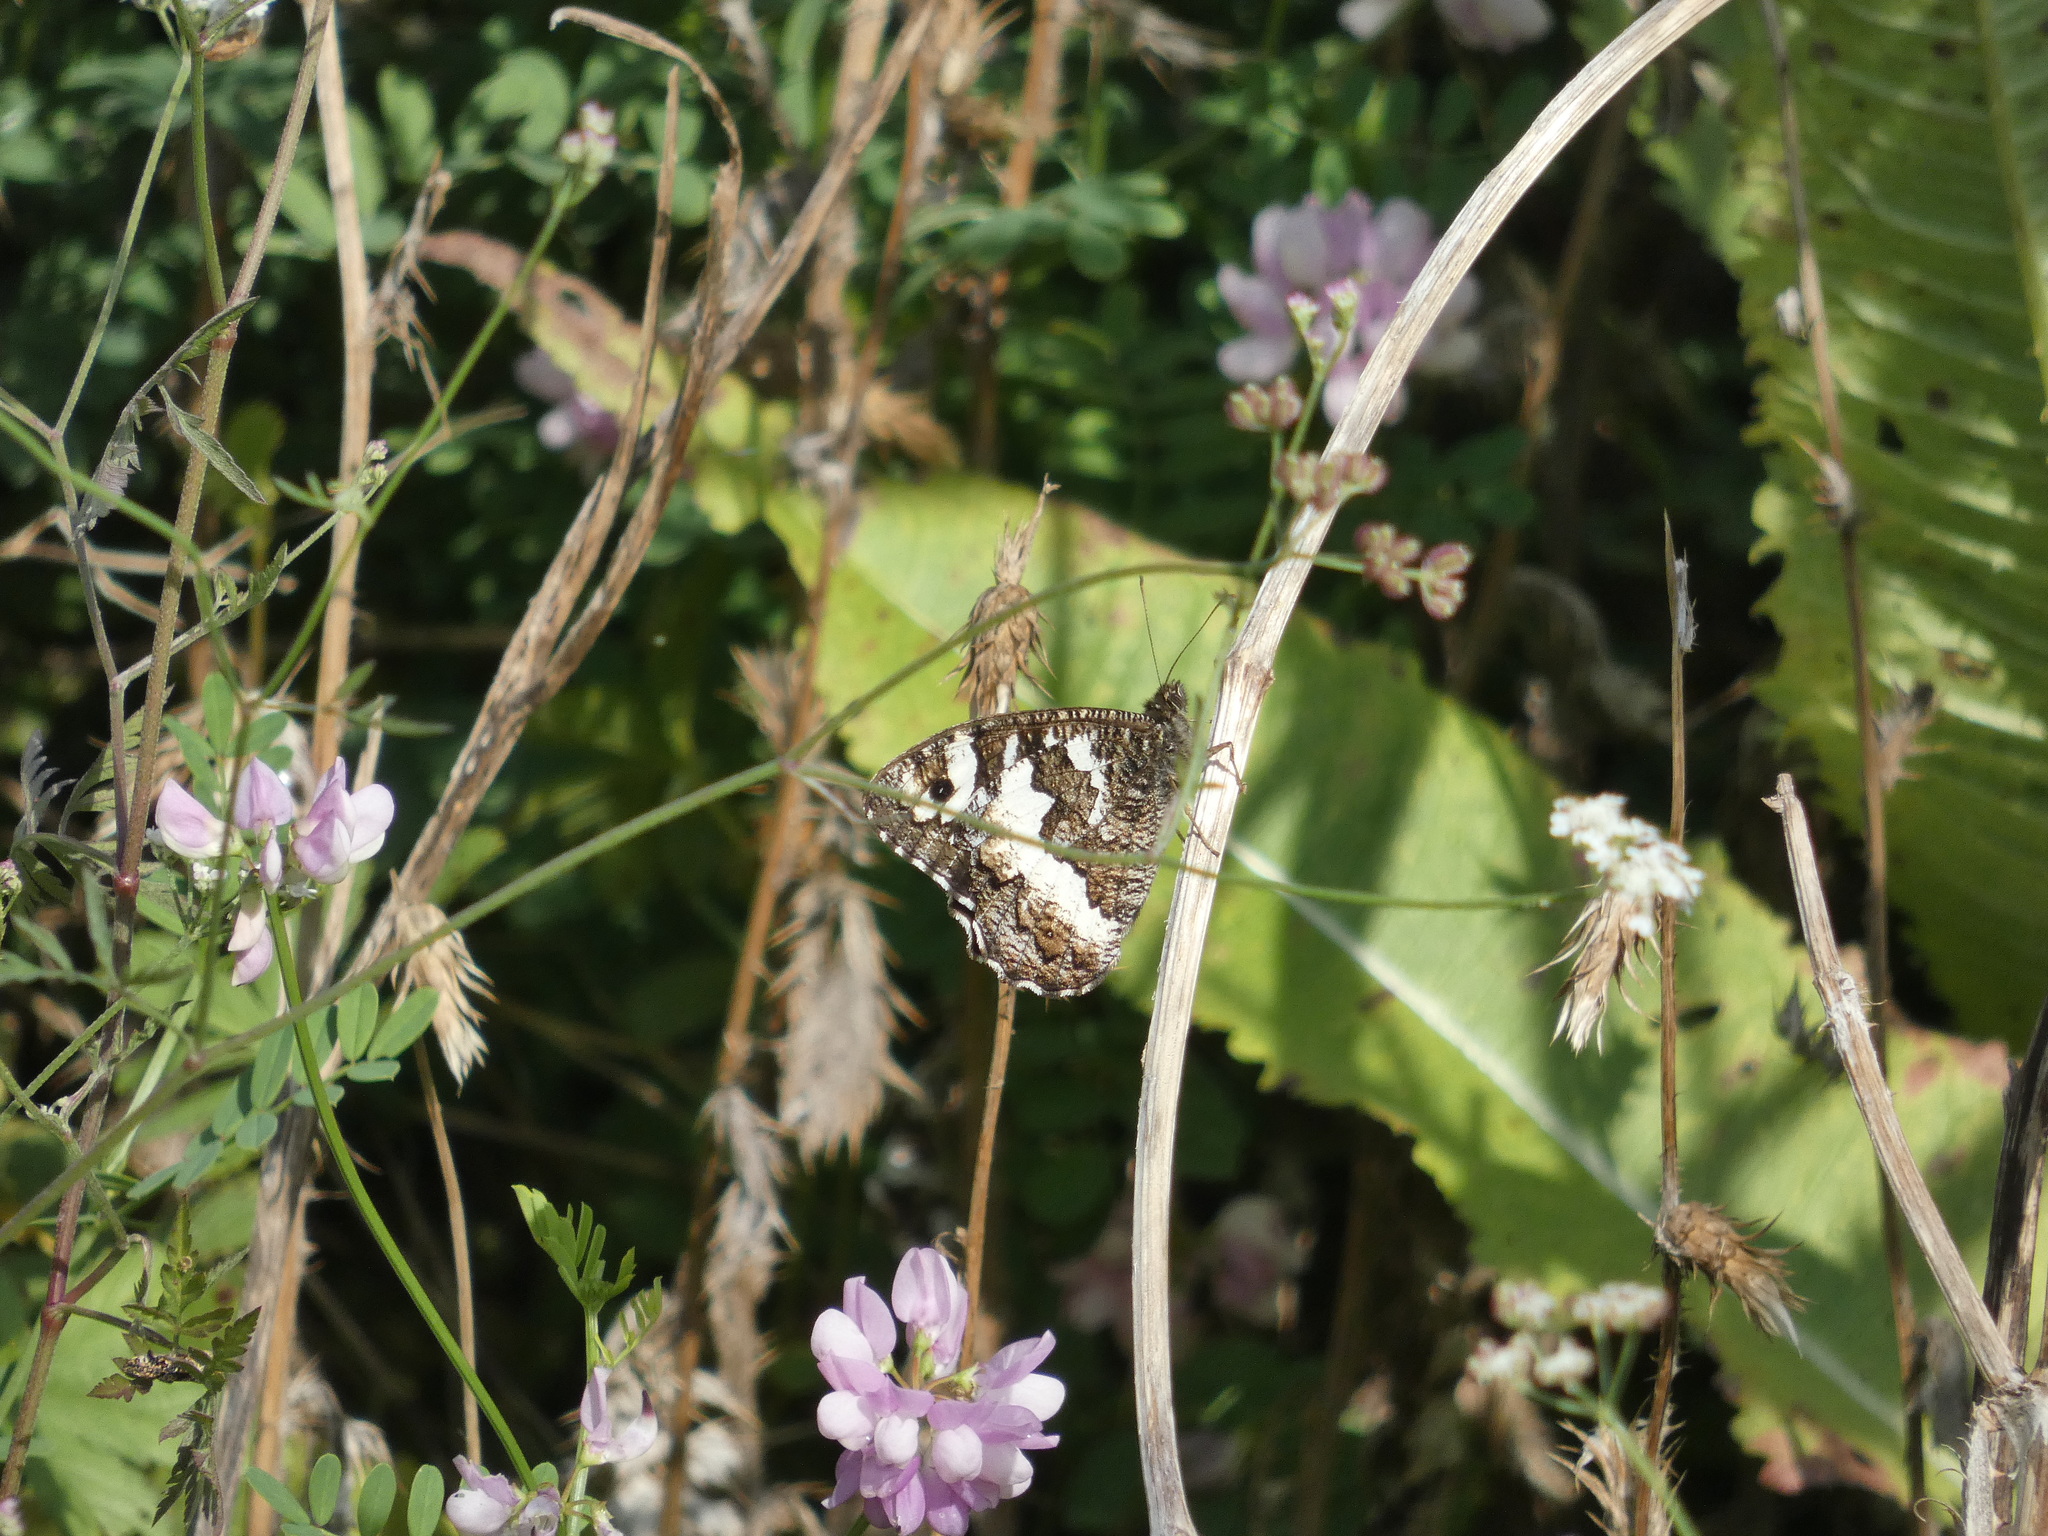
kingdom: Animalia
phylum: Arthropoda
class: Insecta
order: Lepidoptera
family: Lycaenidae
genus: Loweia
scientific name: Loweia tityrus
